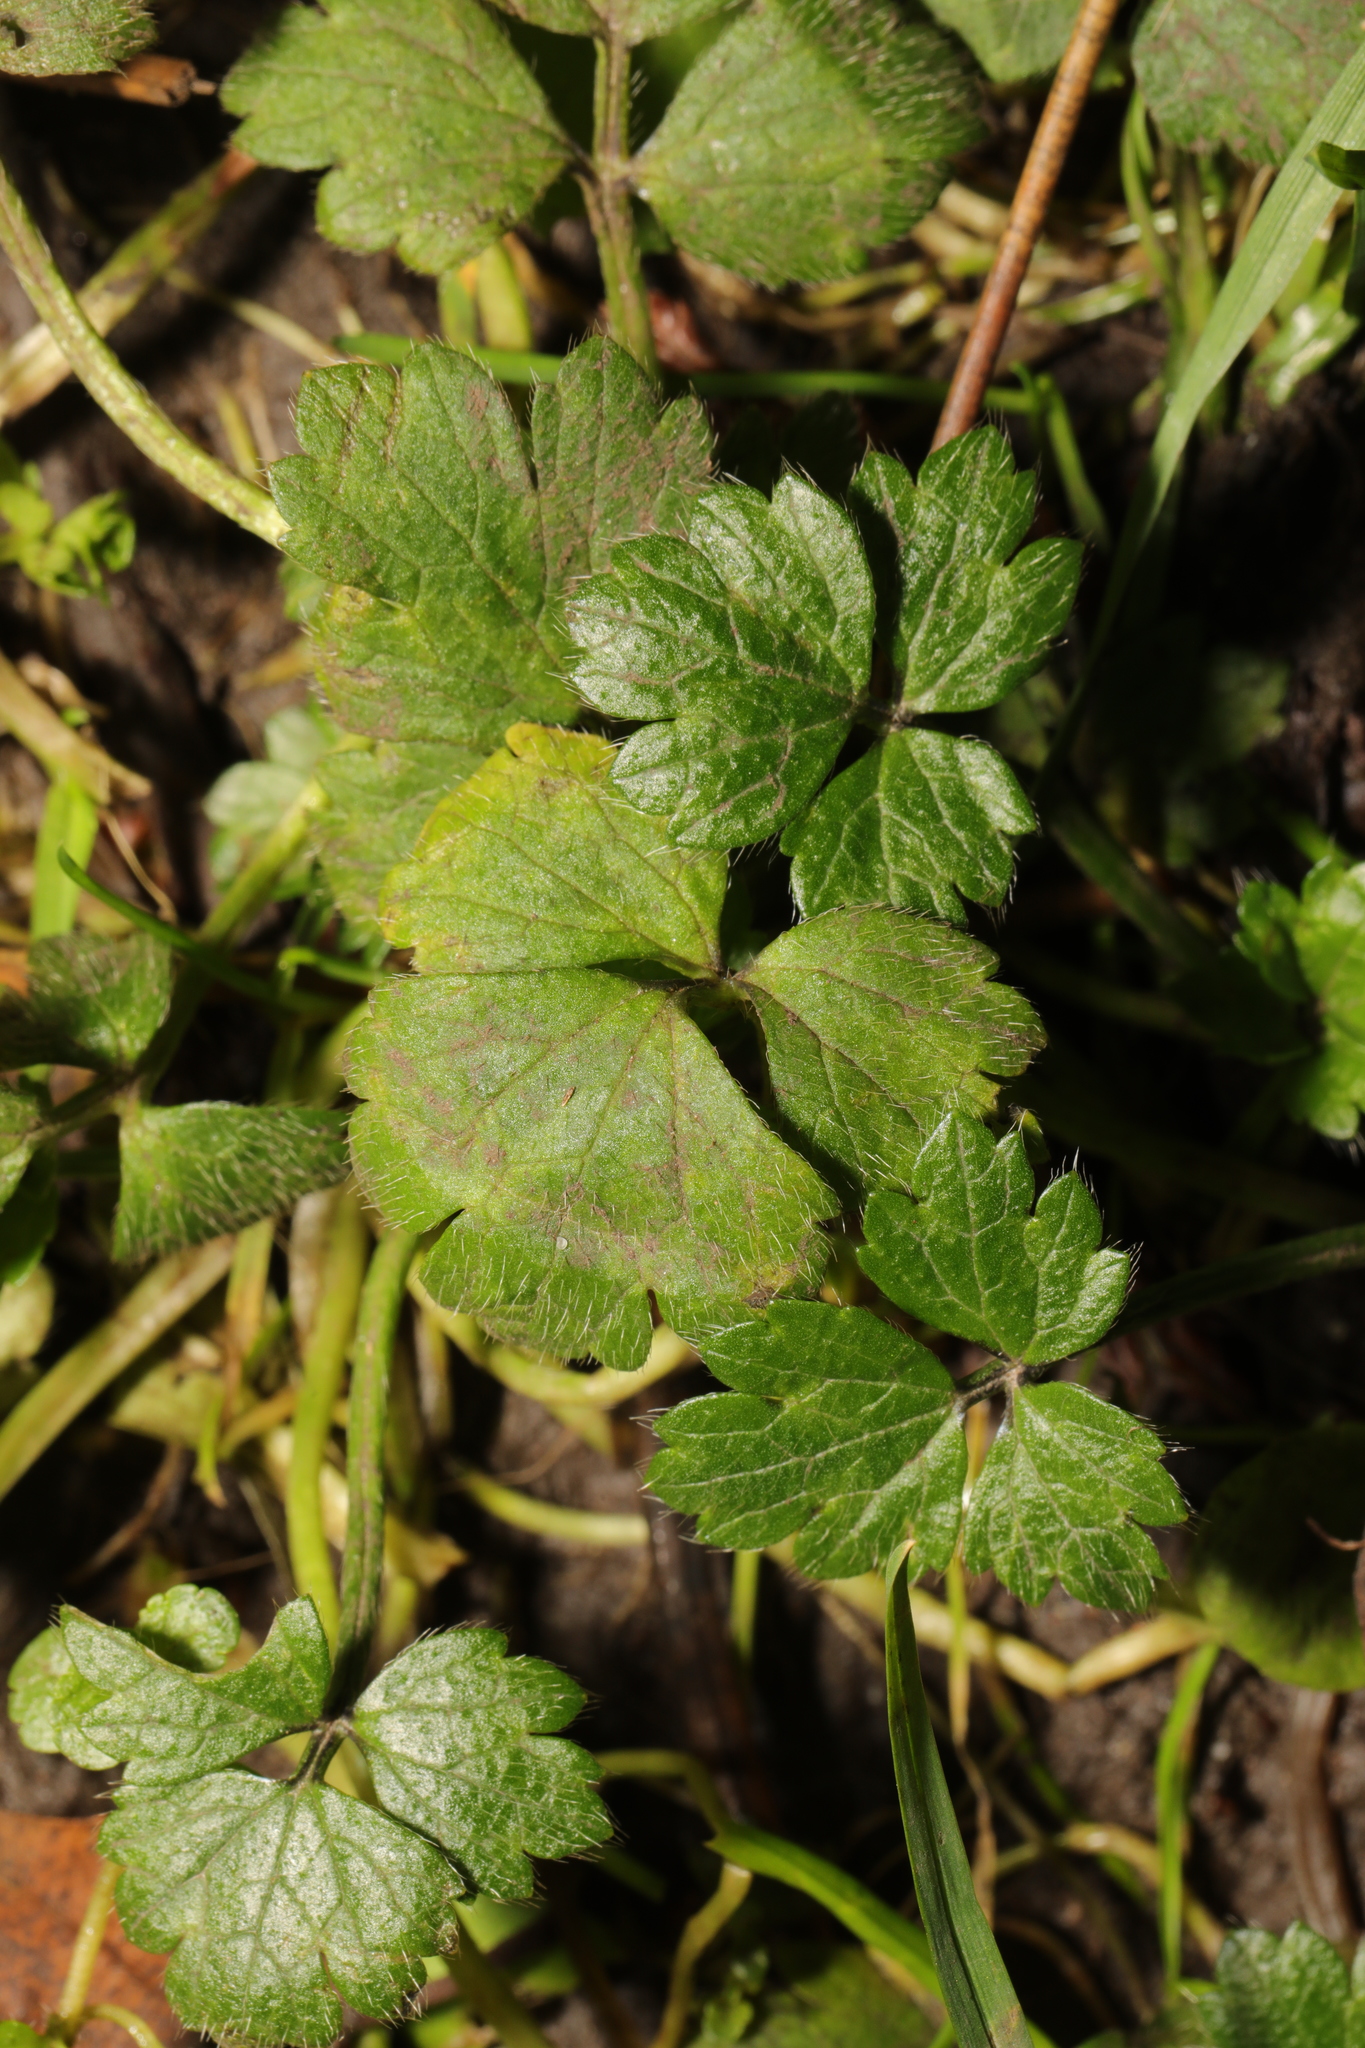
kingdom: Plantae
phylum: Tracheophyta
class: Magnoliopsida
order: Ranunculales
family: Ranunculaceae
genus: Ranunculus
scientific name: Ranunculus repens
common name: Creeping buttercup
